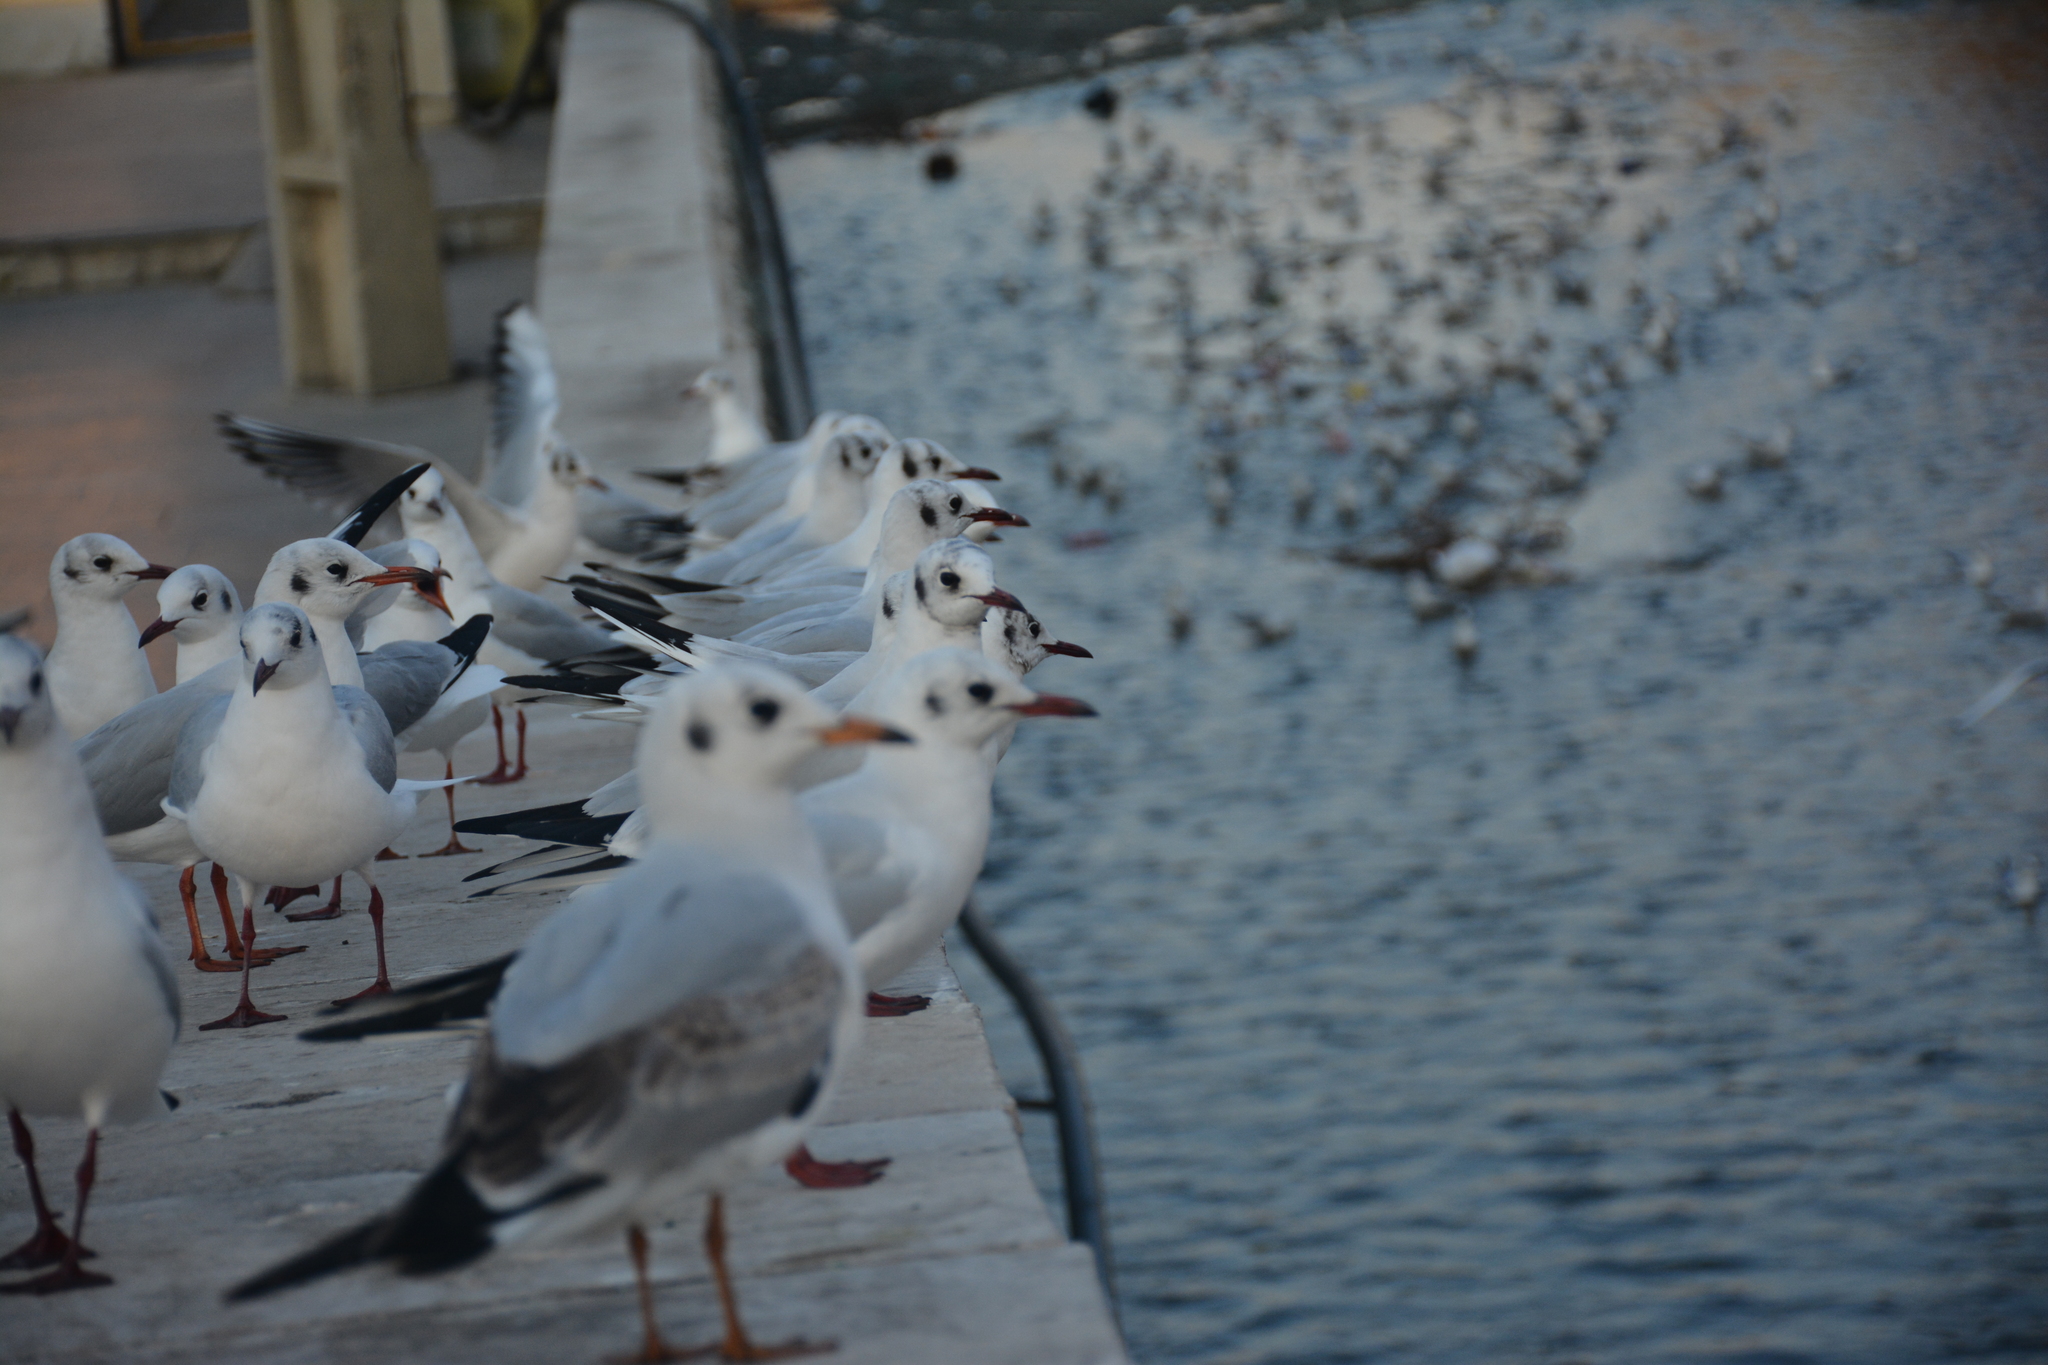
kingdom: Animalia
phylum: Chordata
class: Aves
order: Charadriiformes
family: Laridae
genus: Chroicocephalus
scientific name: Chroicocephalus ridibundus
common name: Black-headed gull
